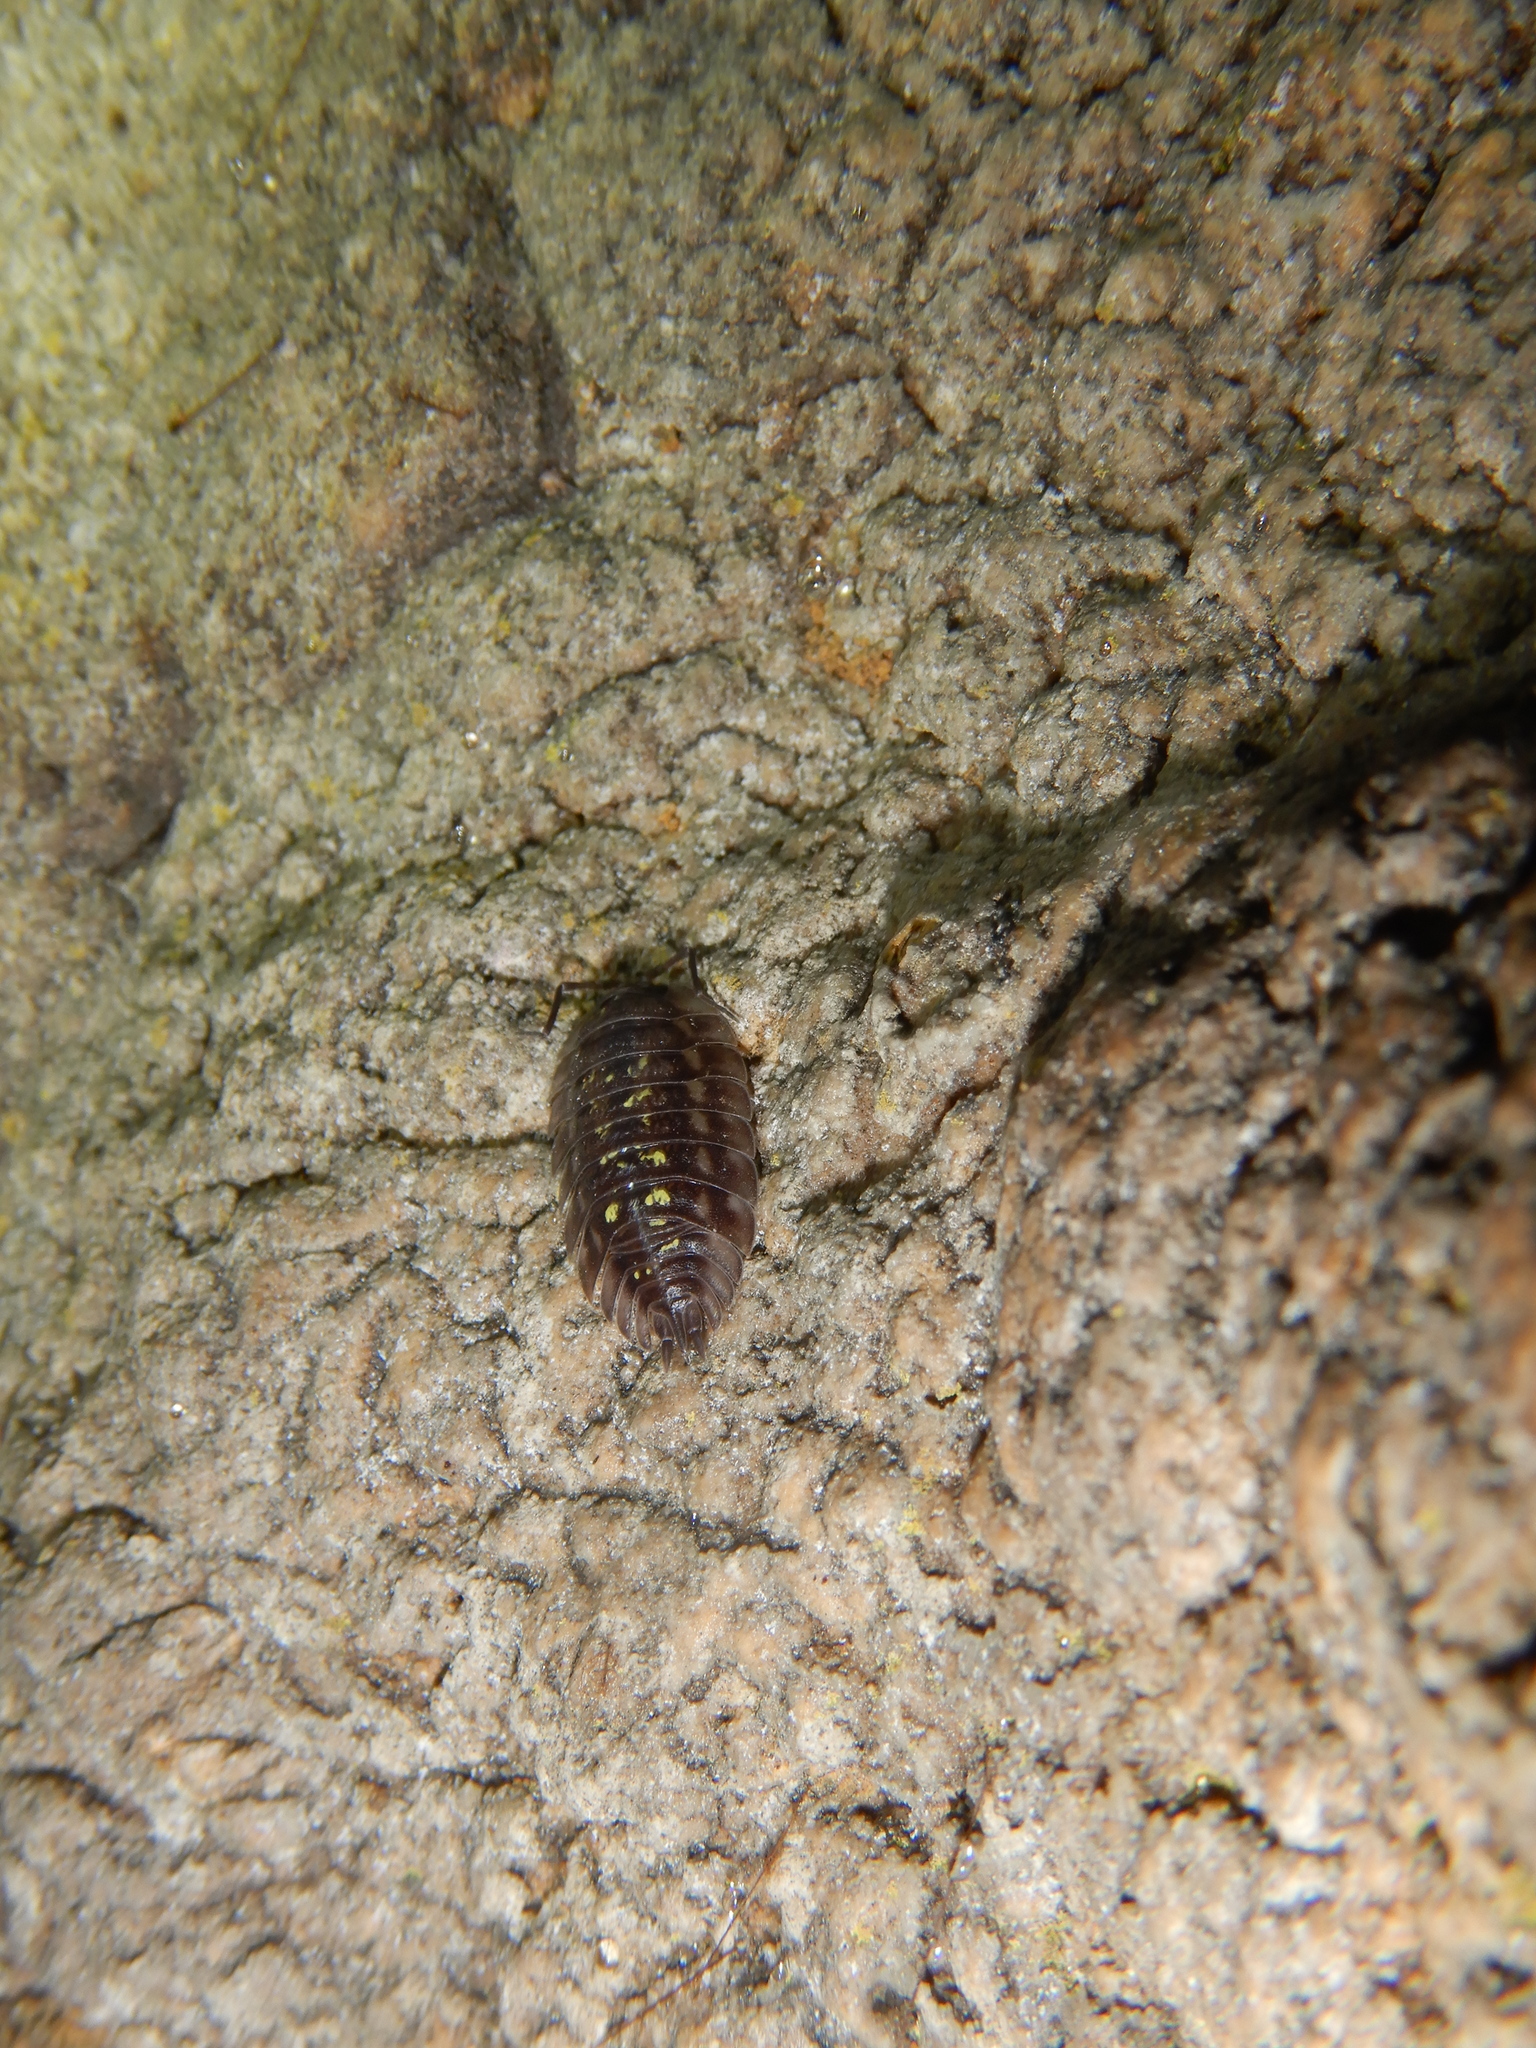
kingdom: Animalia
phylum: Arthropoda
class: Malacostraca
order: Isopoda
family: Oniscidae
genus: Oniscus
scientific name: Oniscus asellus
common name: Common shiny woodlouse
